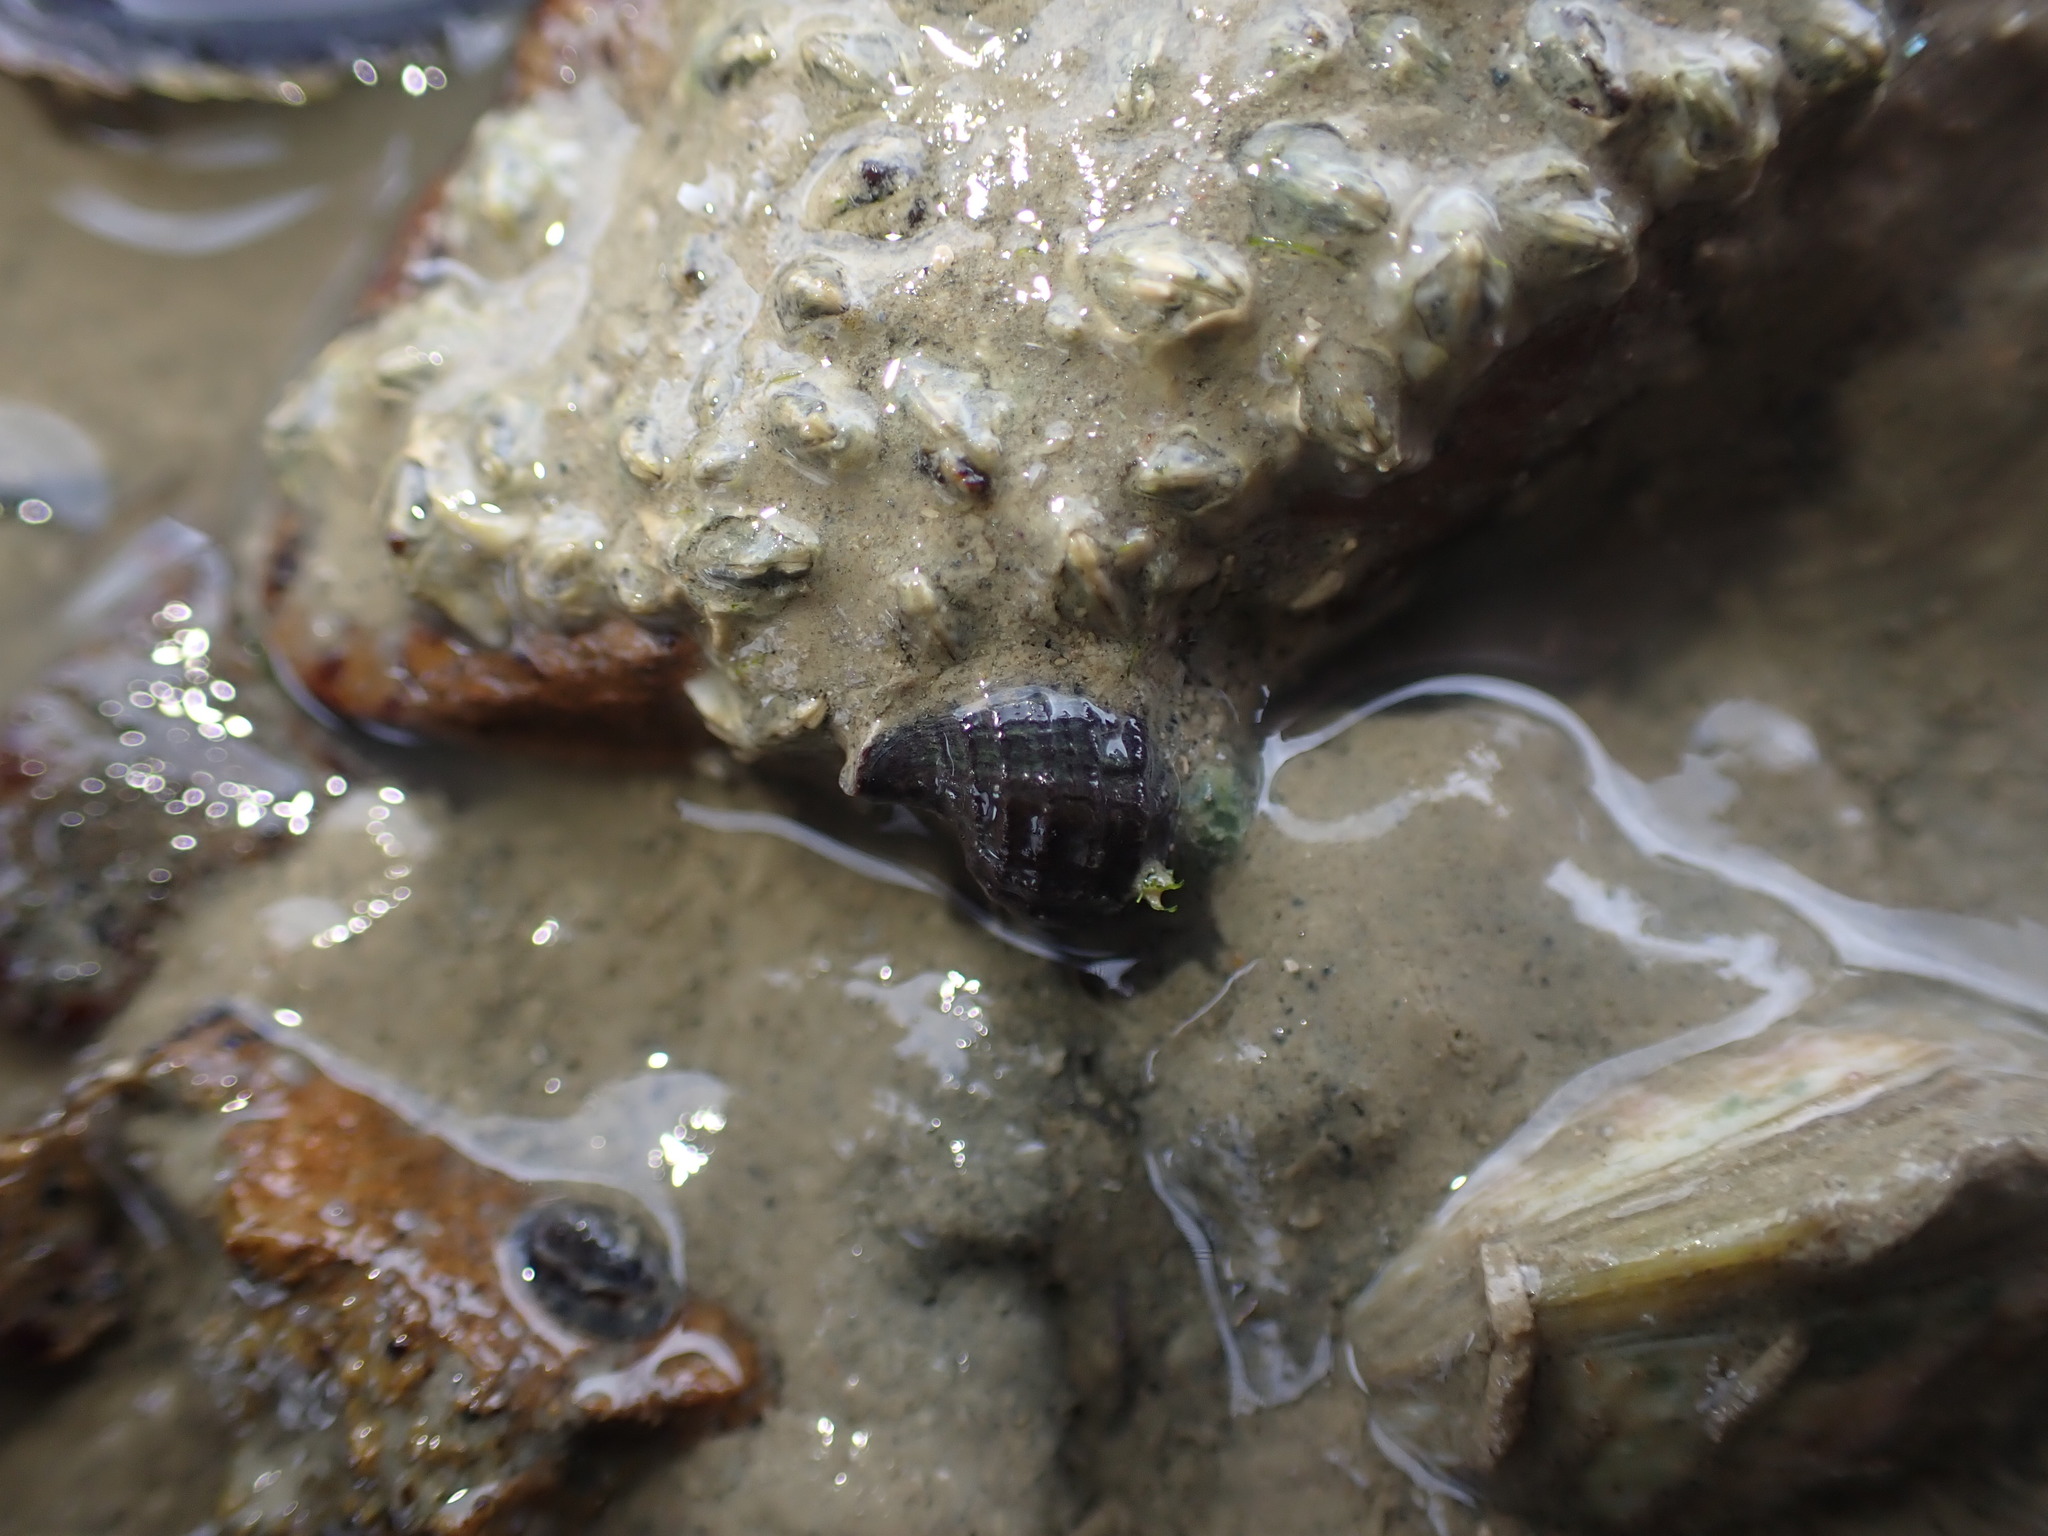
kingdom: Animalia
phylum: Mollusca
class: Gastropoda
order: Neogastropoda
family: Muricidae
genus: Xymene
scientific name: Xymene plebeius
